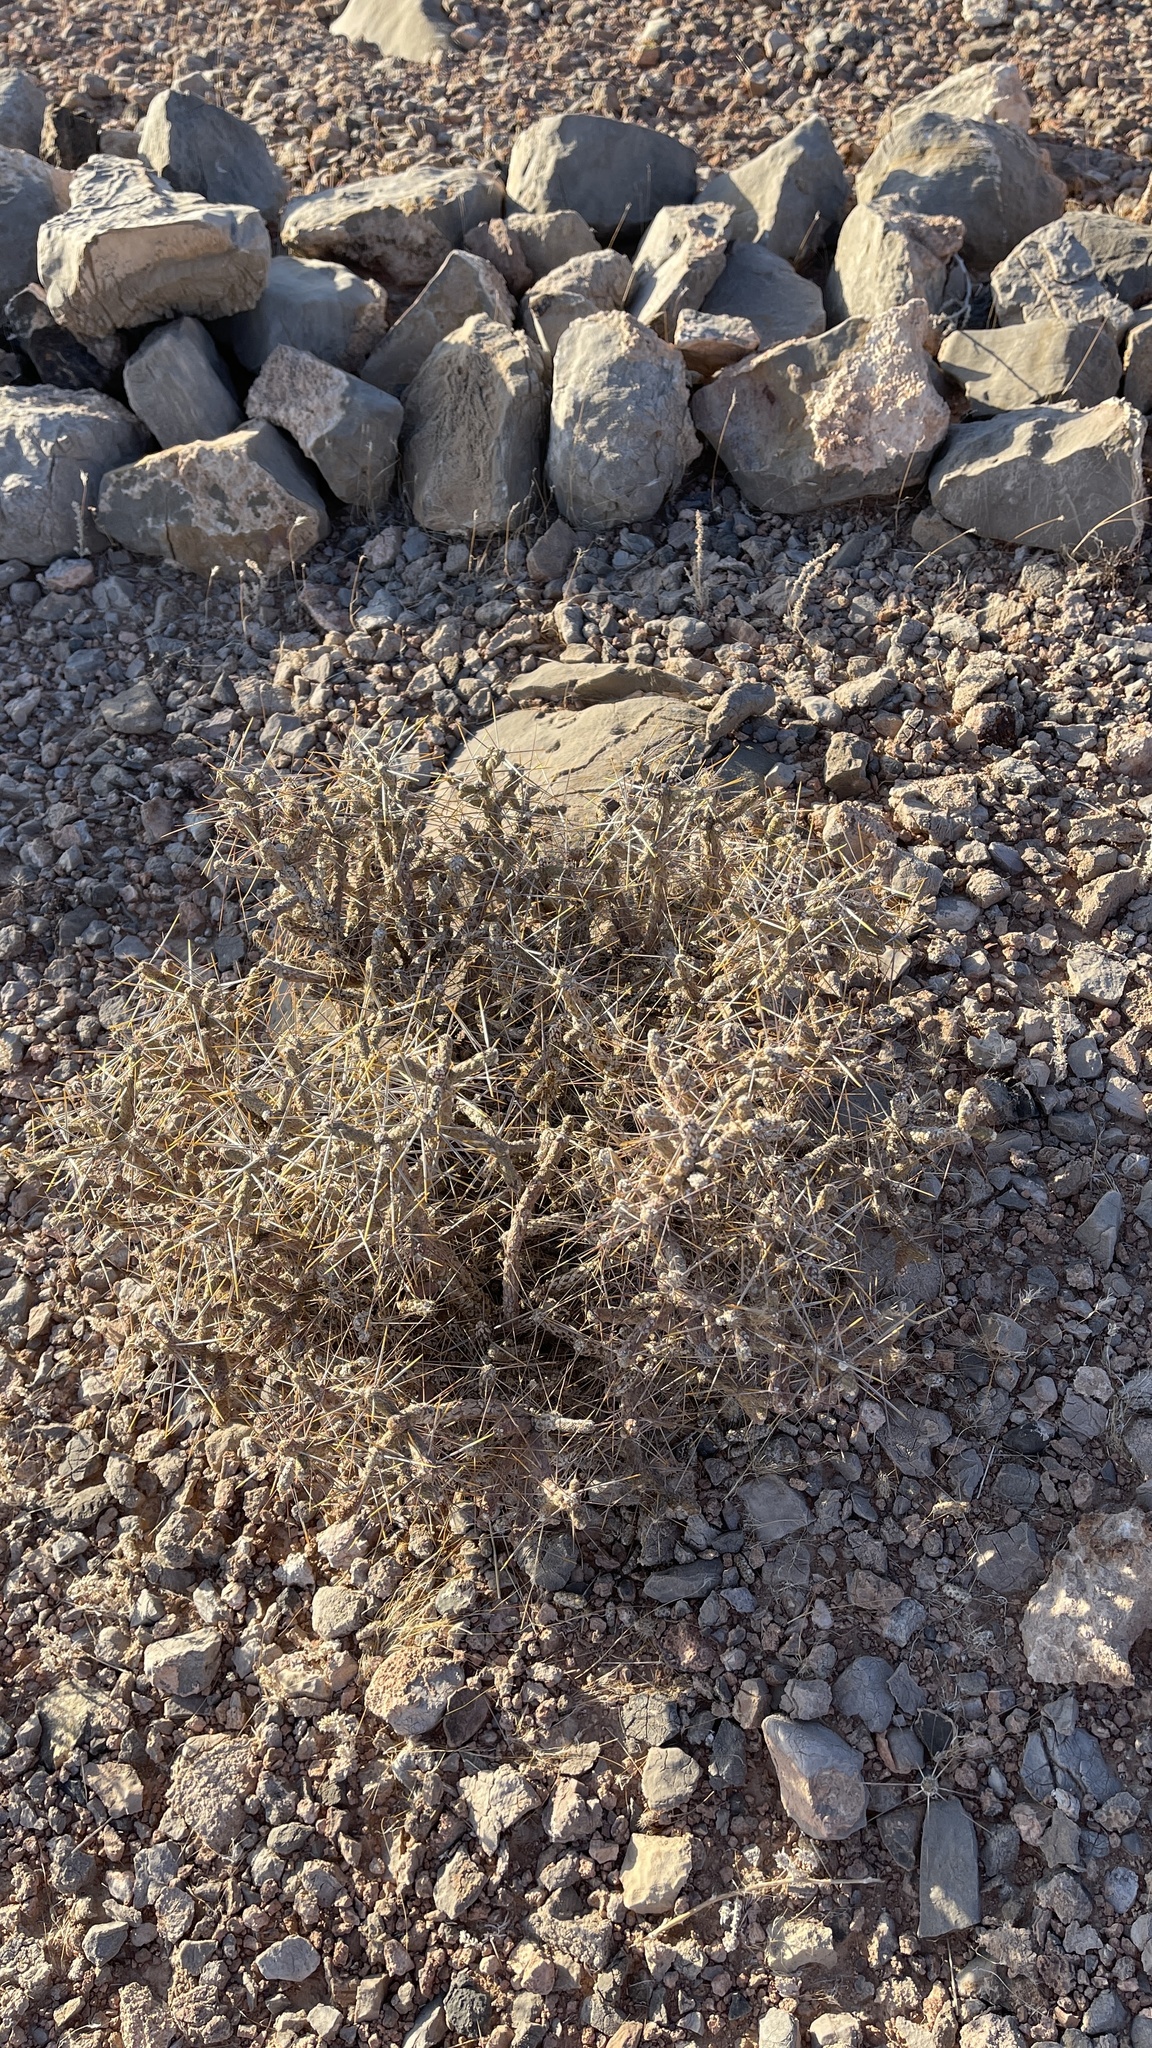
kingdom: Plantae
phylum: Tracheophyta
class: Magnoliopsida
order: Caryophyllales
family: Cactaceae
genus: Cylindropuntia
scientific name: Cylindropuntia ramosissima
